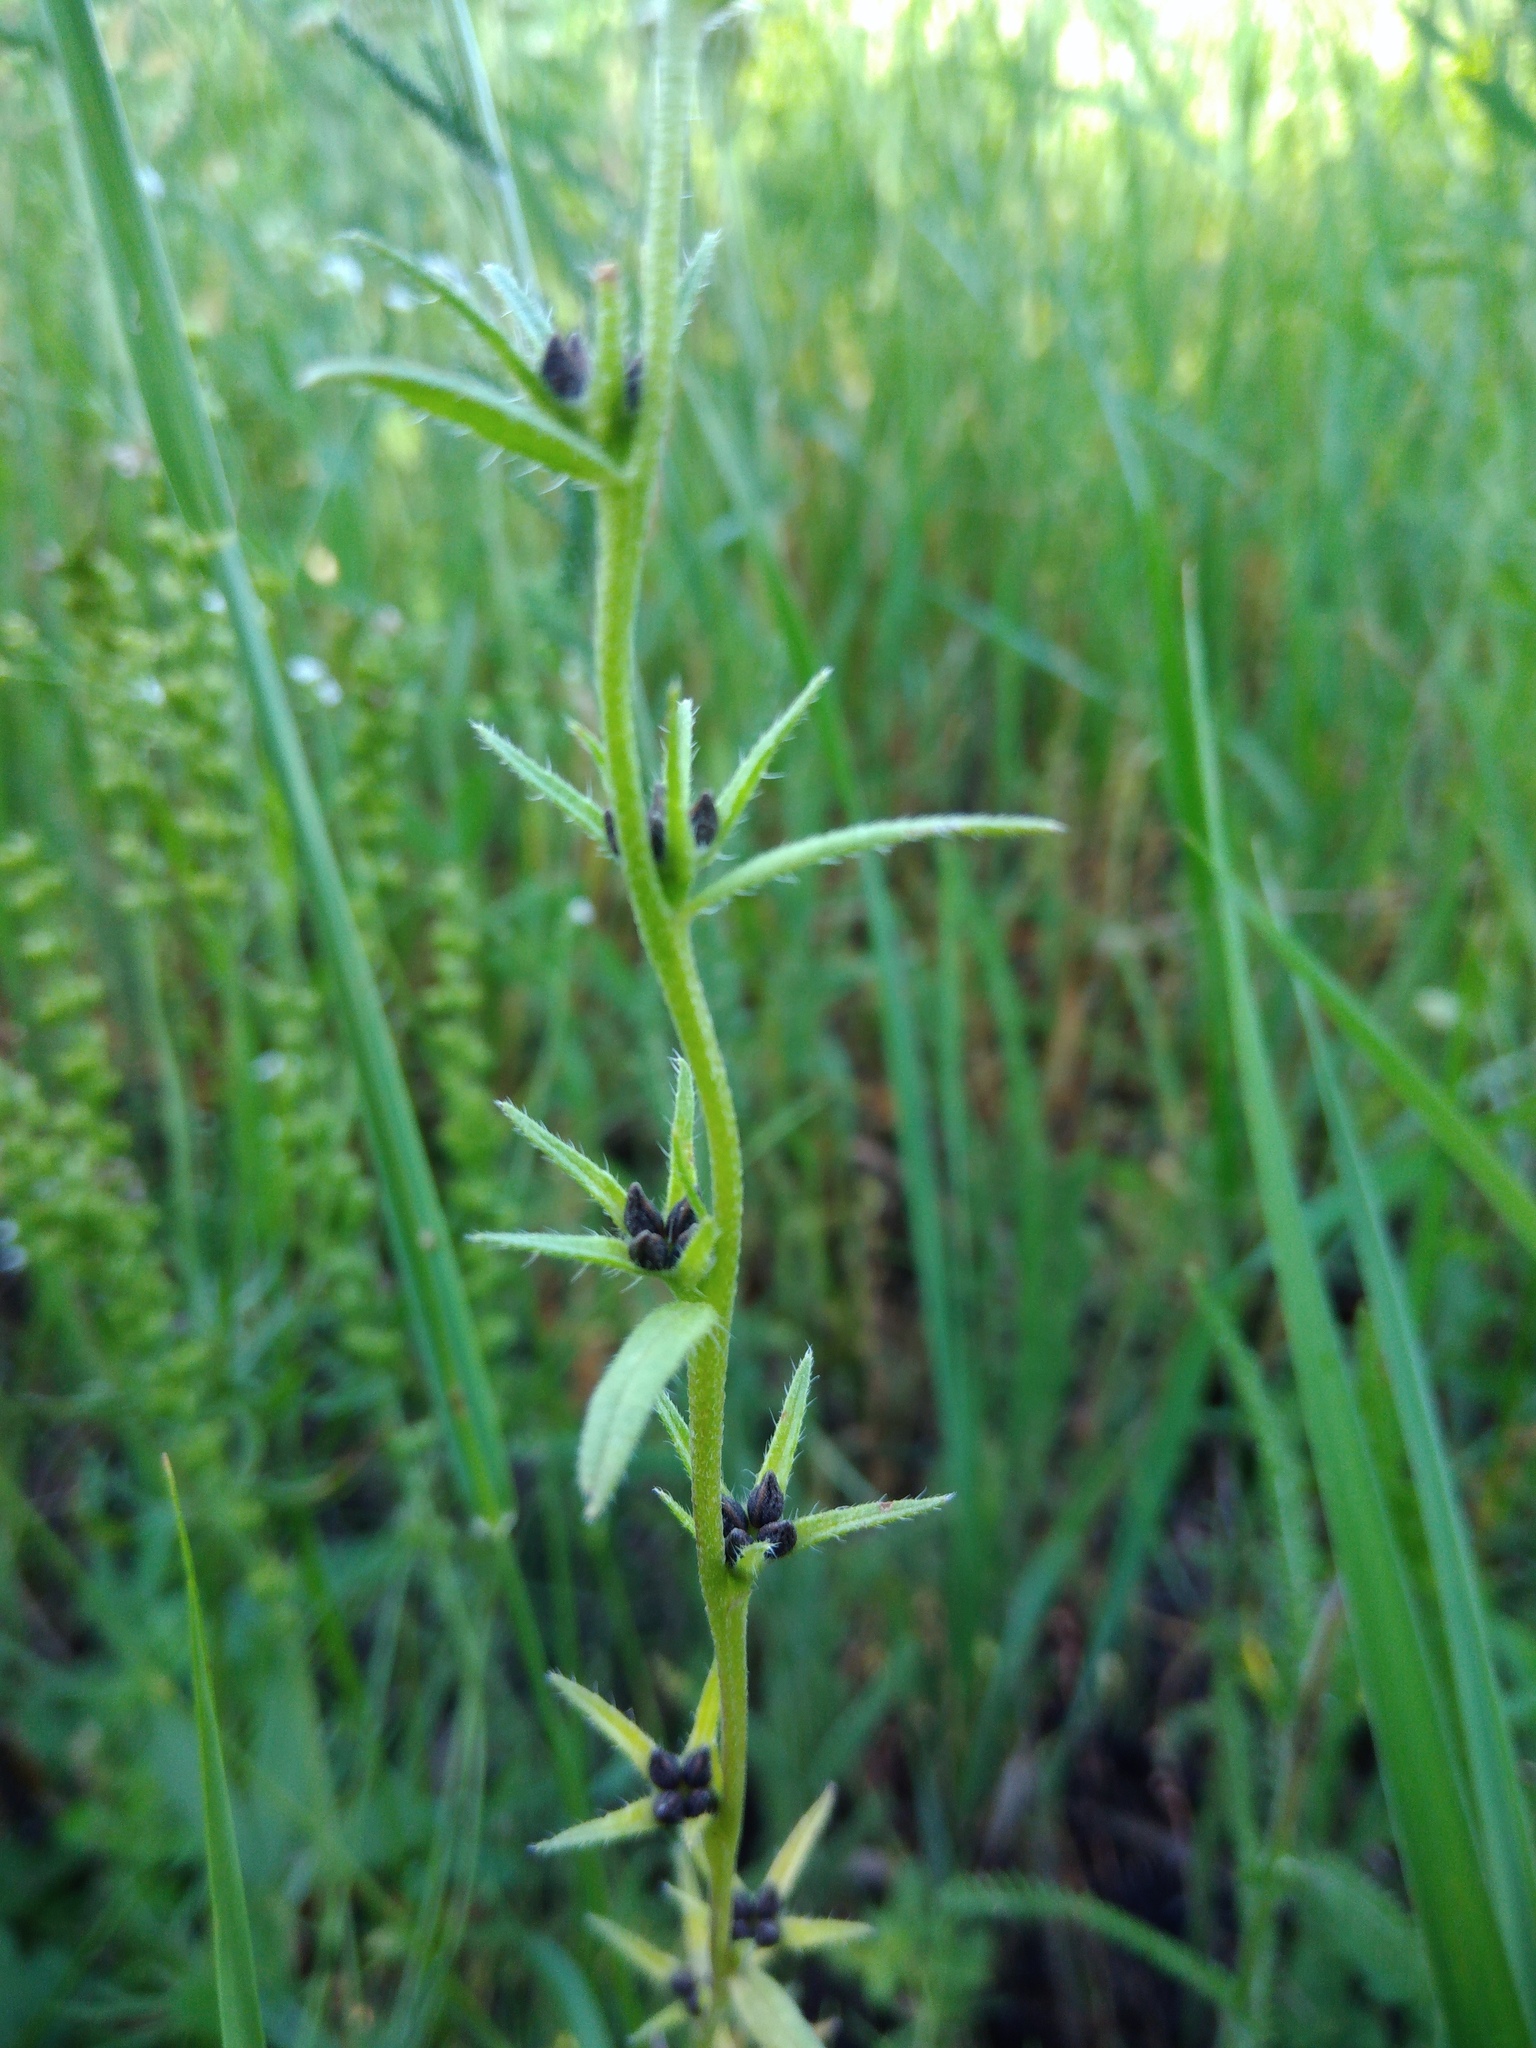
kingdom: Plantae
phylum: Tracheophyta
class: Magnoliopsida
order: Boraginales
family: Boraginaceae
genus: Buglossoides
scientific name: Buglossoides arvensis
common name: Corn gromwell
